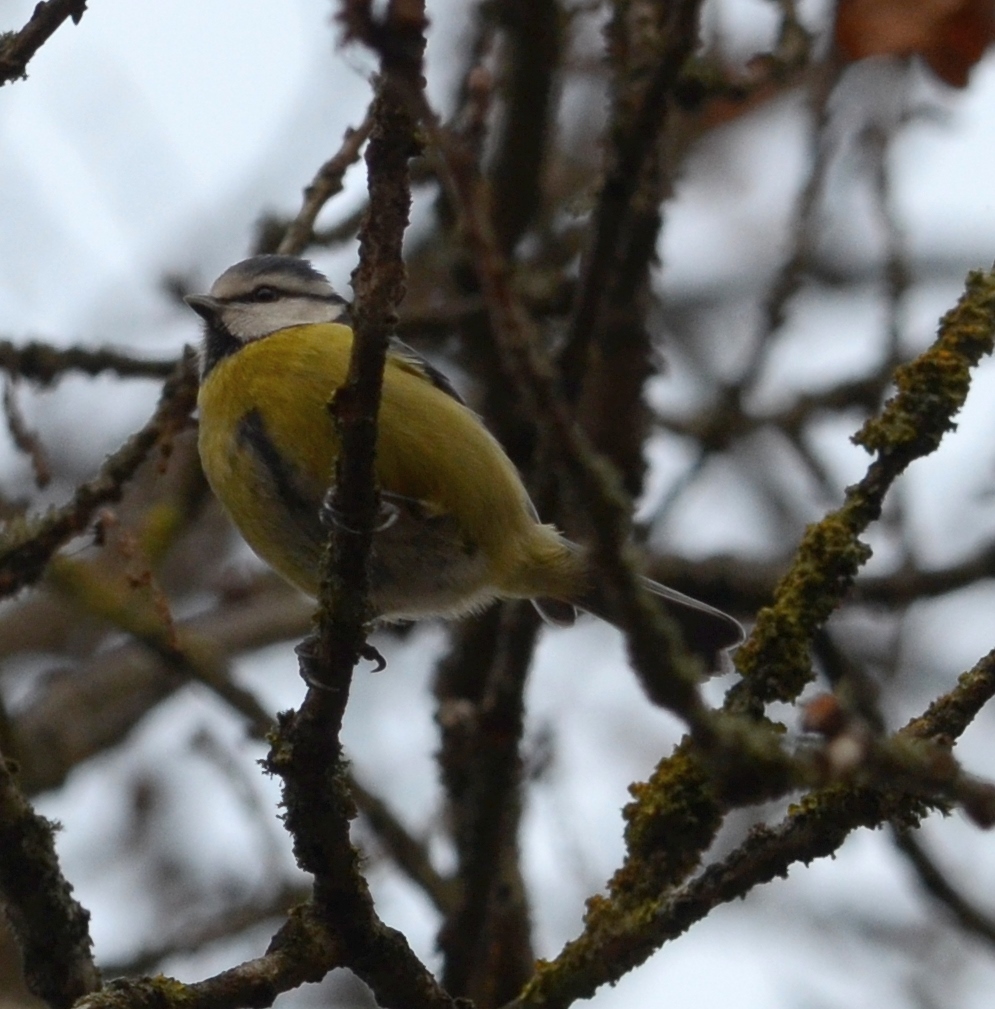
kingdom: Animalia
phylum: Chordata
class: Aves
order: Passeriformes
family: Paridae
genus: Cyanistes
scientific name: Cyanistes caeruleus
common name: Eurasian blue tit
